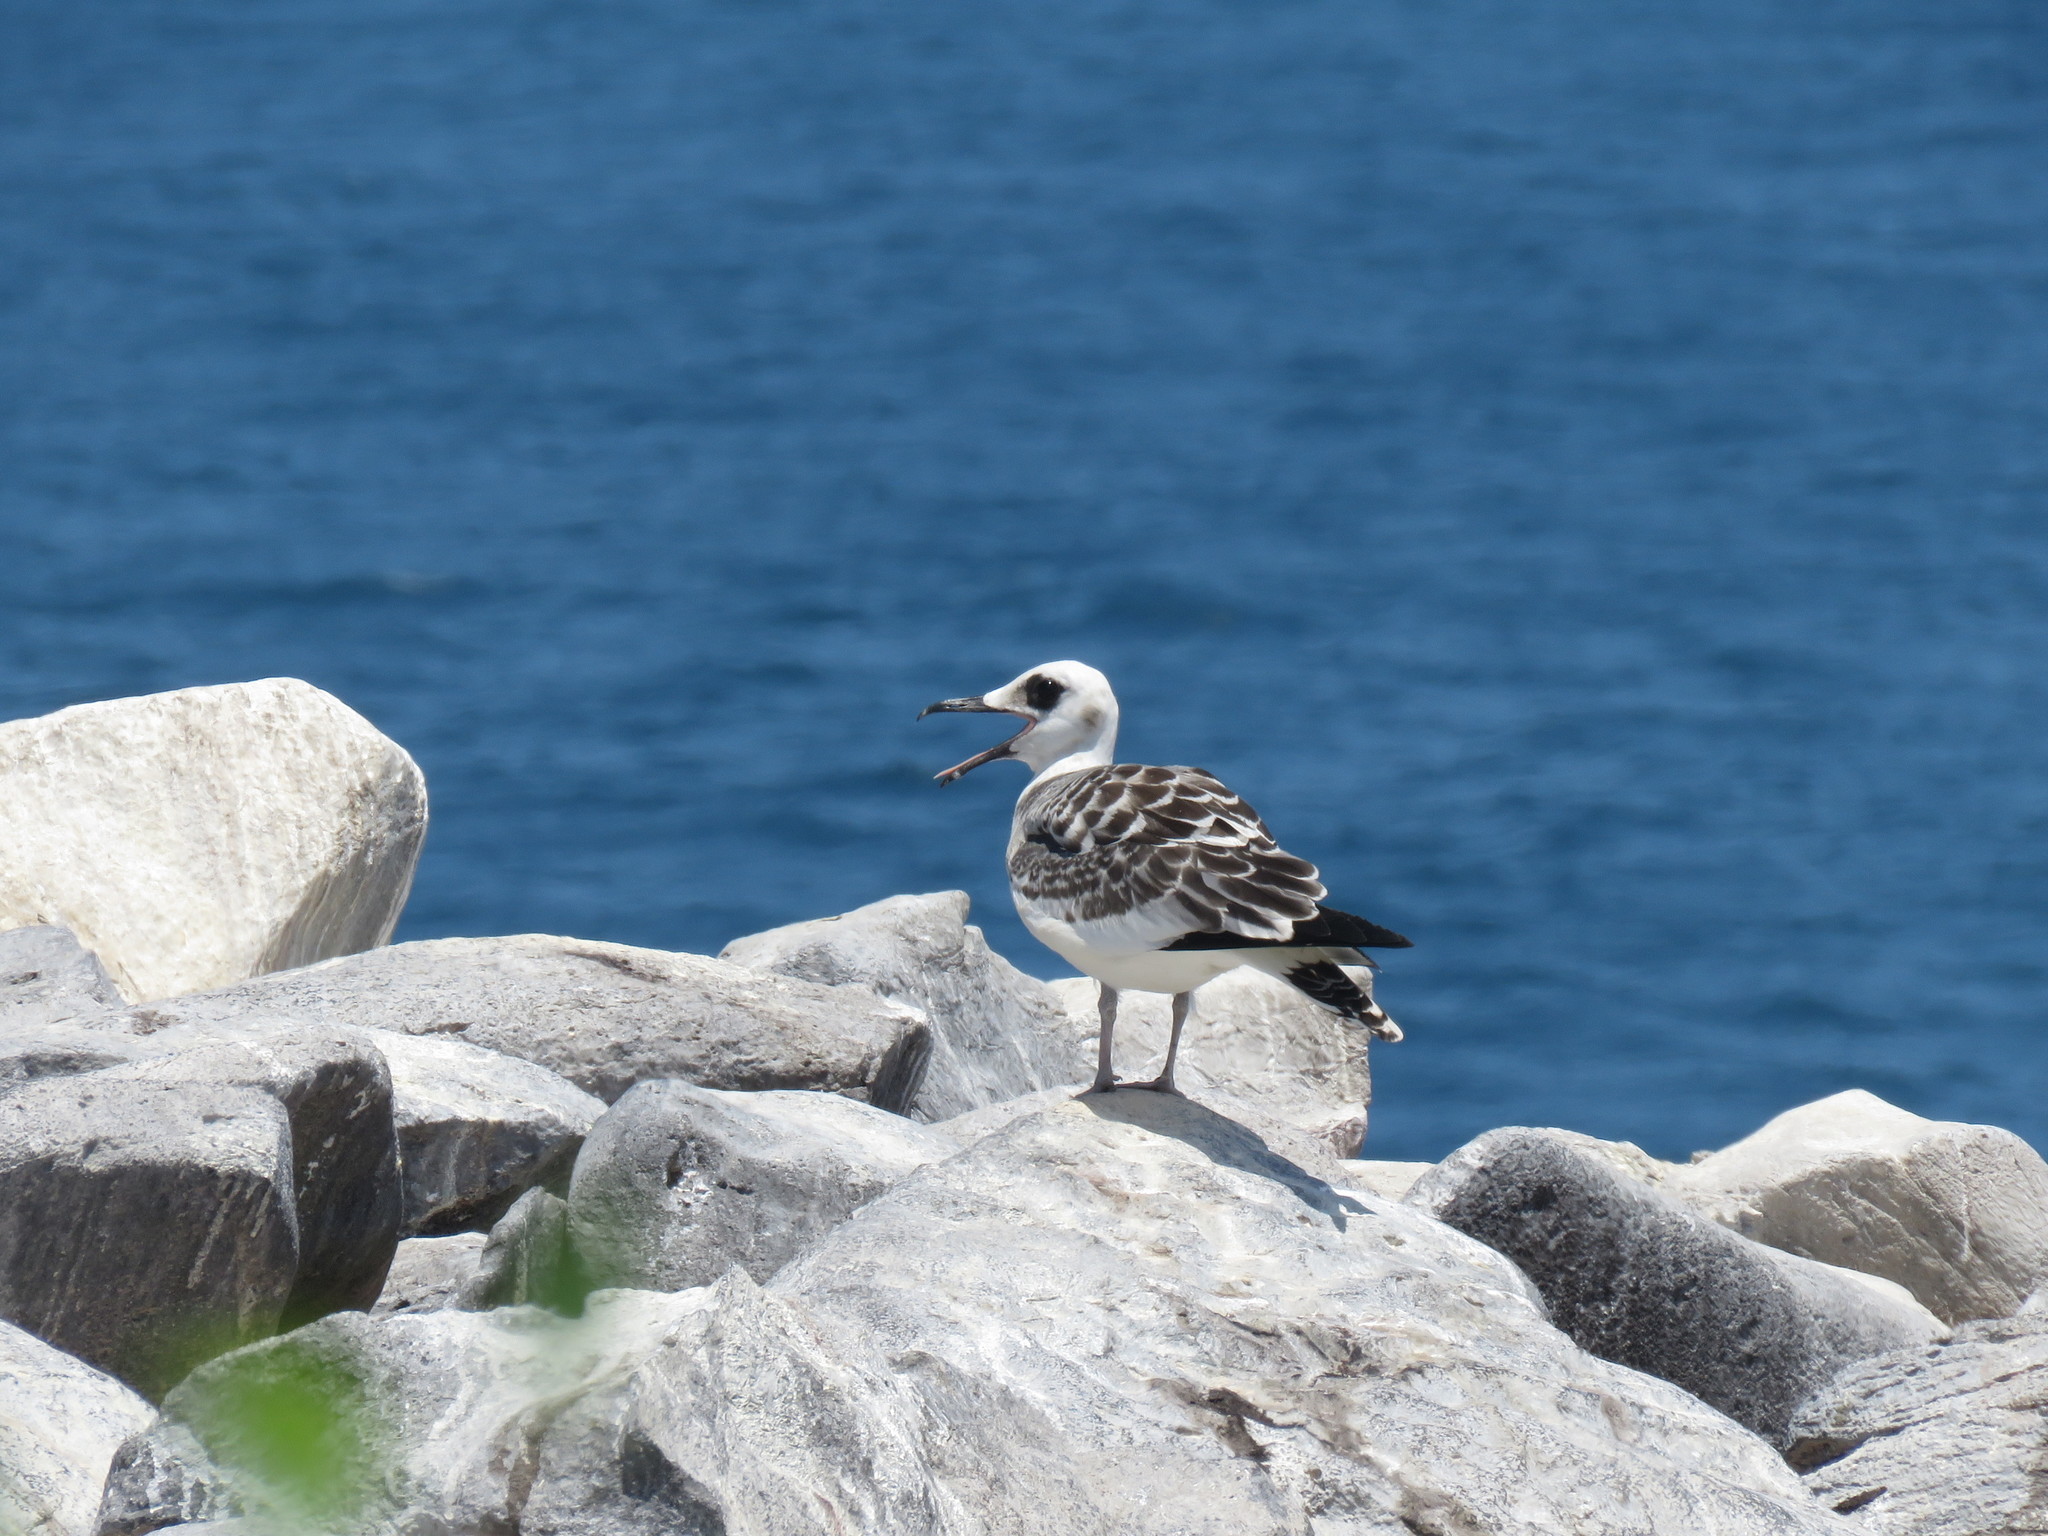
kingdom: Animalia
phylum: Chordata
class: Aves
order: Charadriiformes
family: Laridae
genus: Creagrus
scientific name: Creagrus furcatus
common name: Swallow-tailed gull
